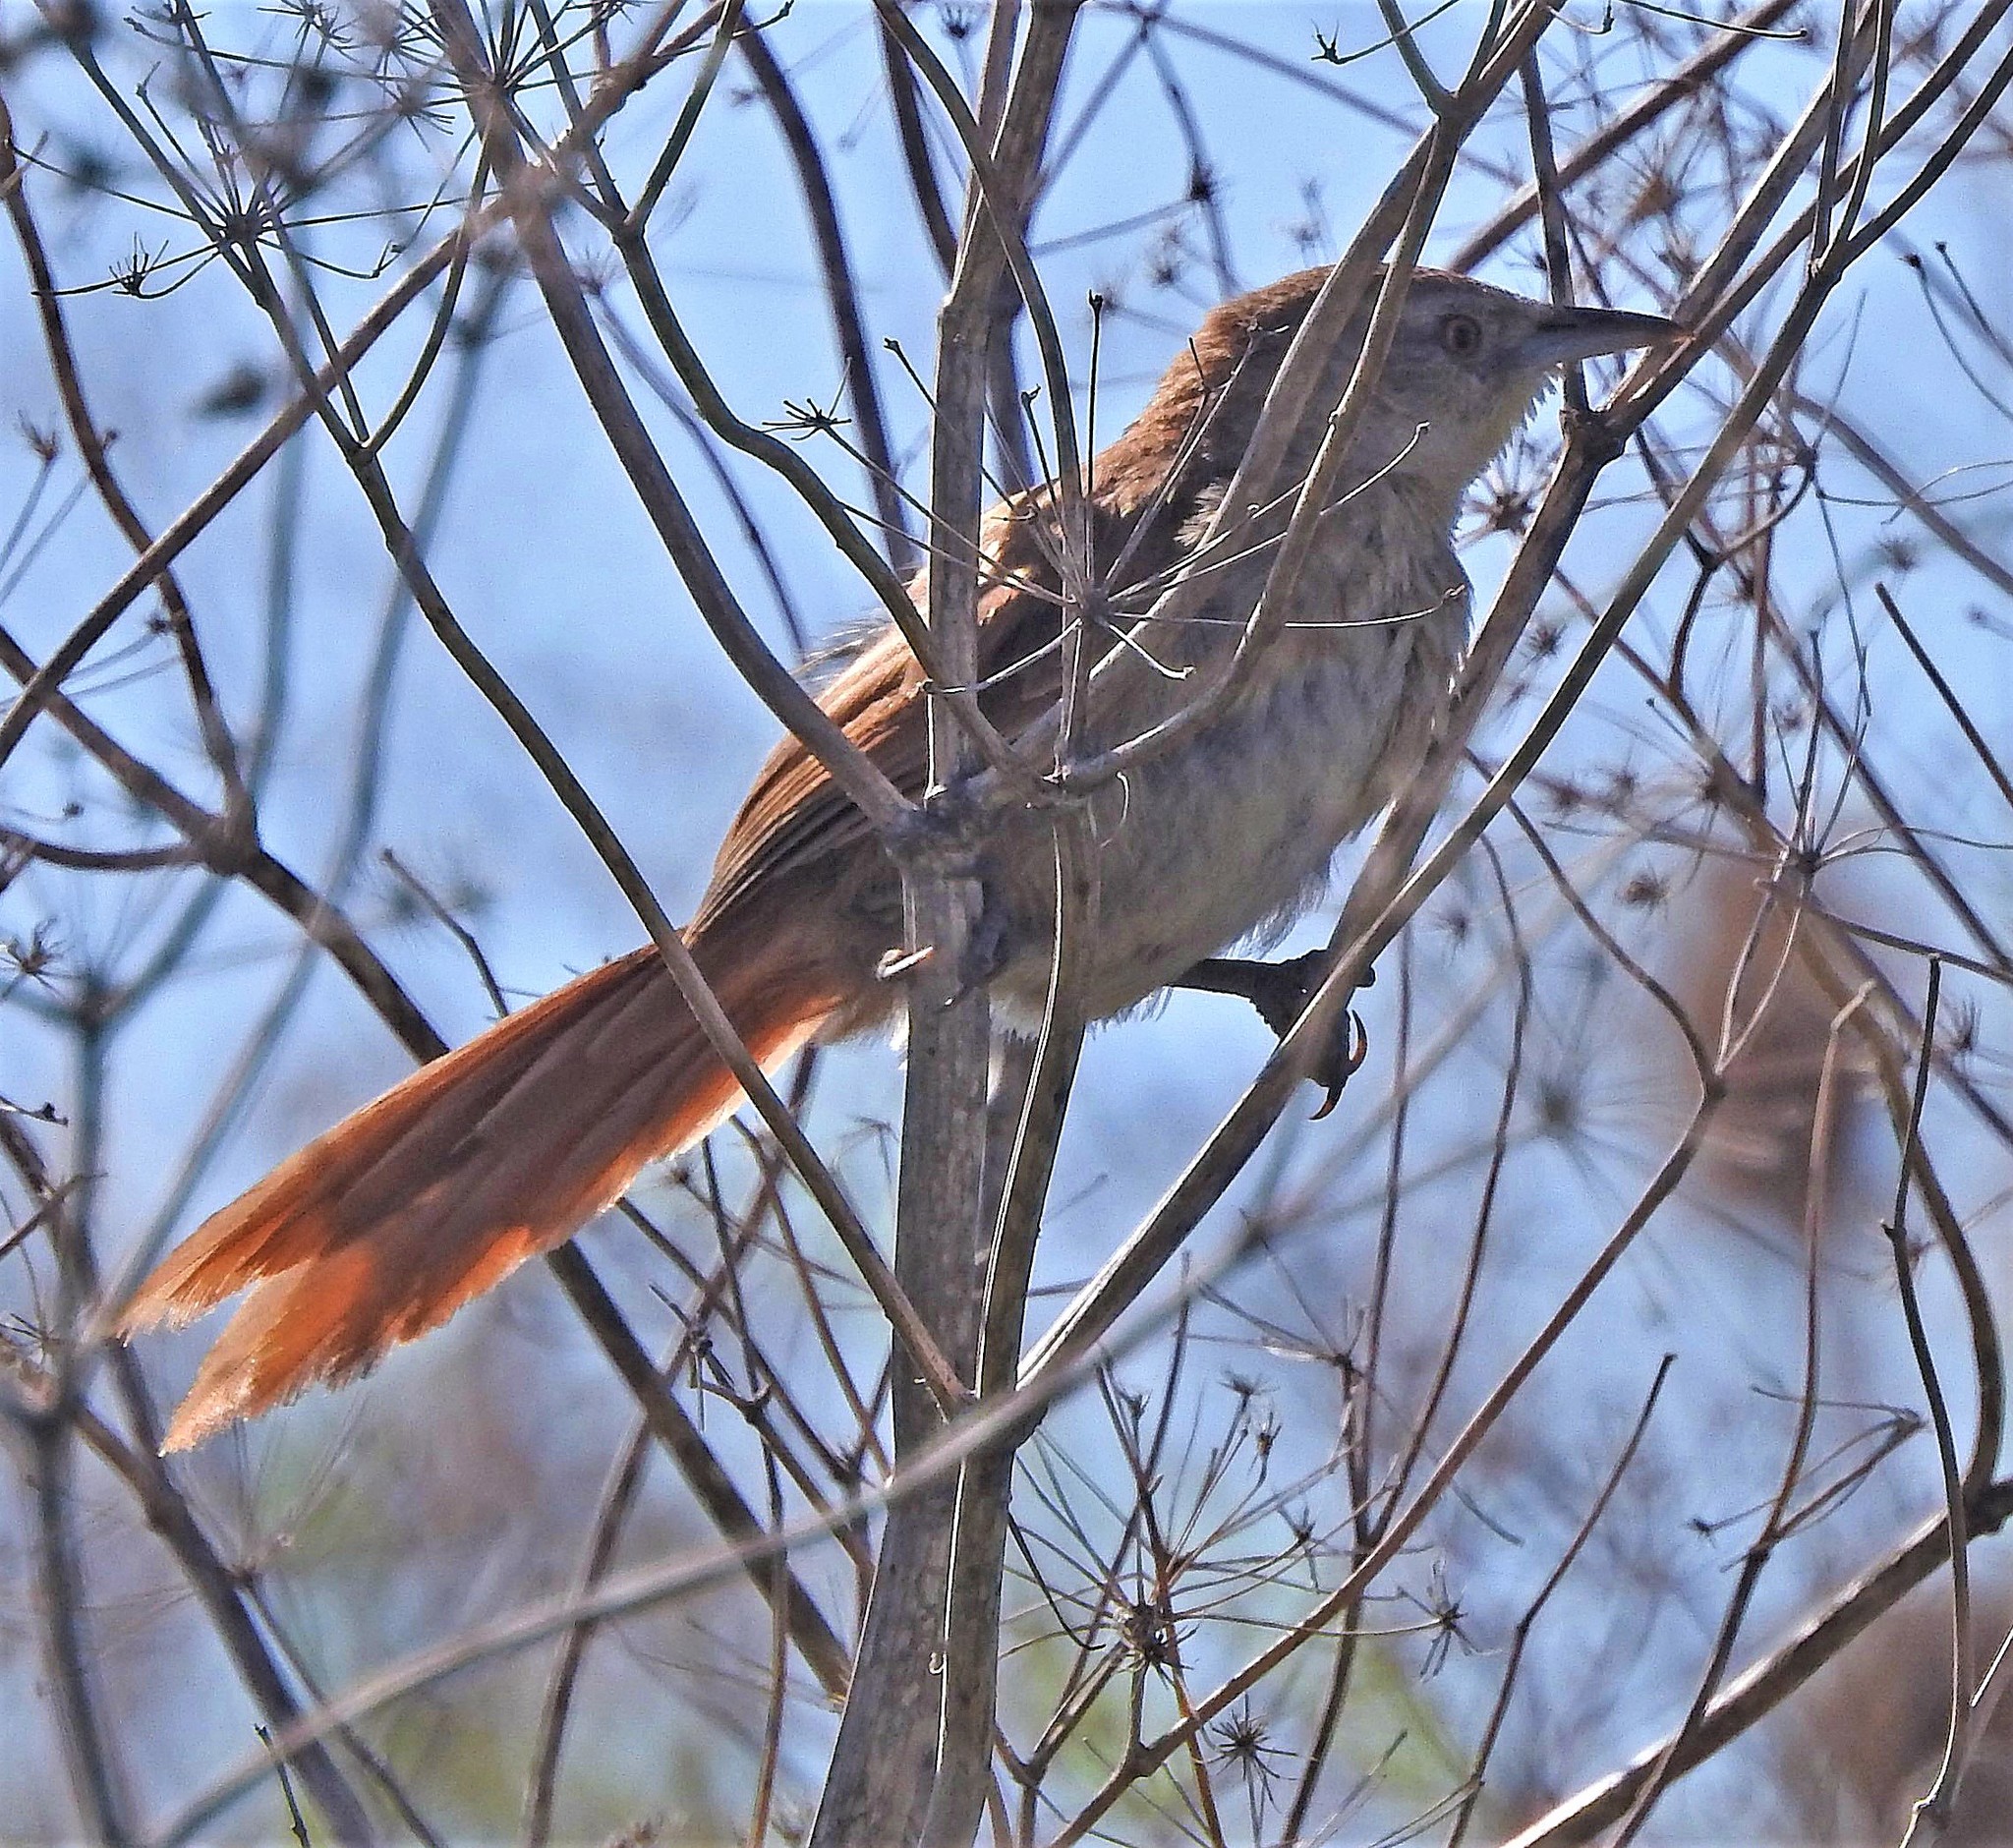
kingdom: Animalia
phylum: Chordata
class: Aves
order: Passeriformes
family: Furnariidae
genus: Phacellodomus
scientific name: Phacellodomus striaticollis
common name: Freckle-breasted thornbird
